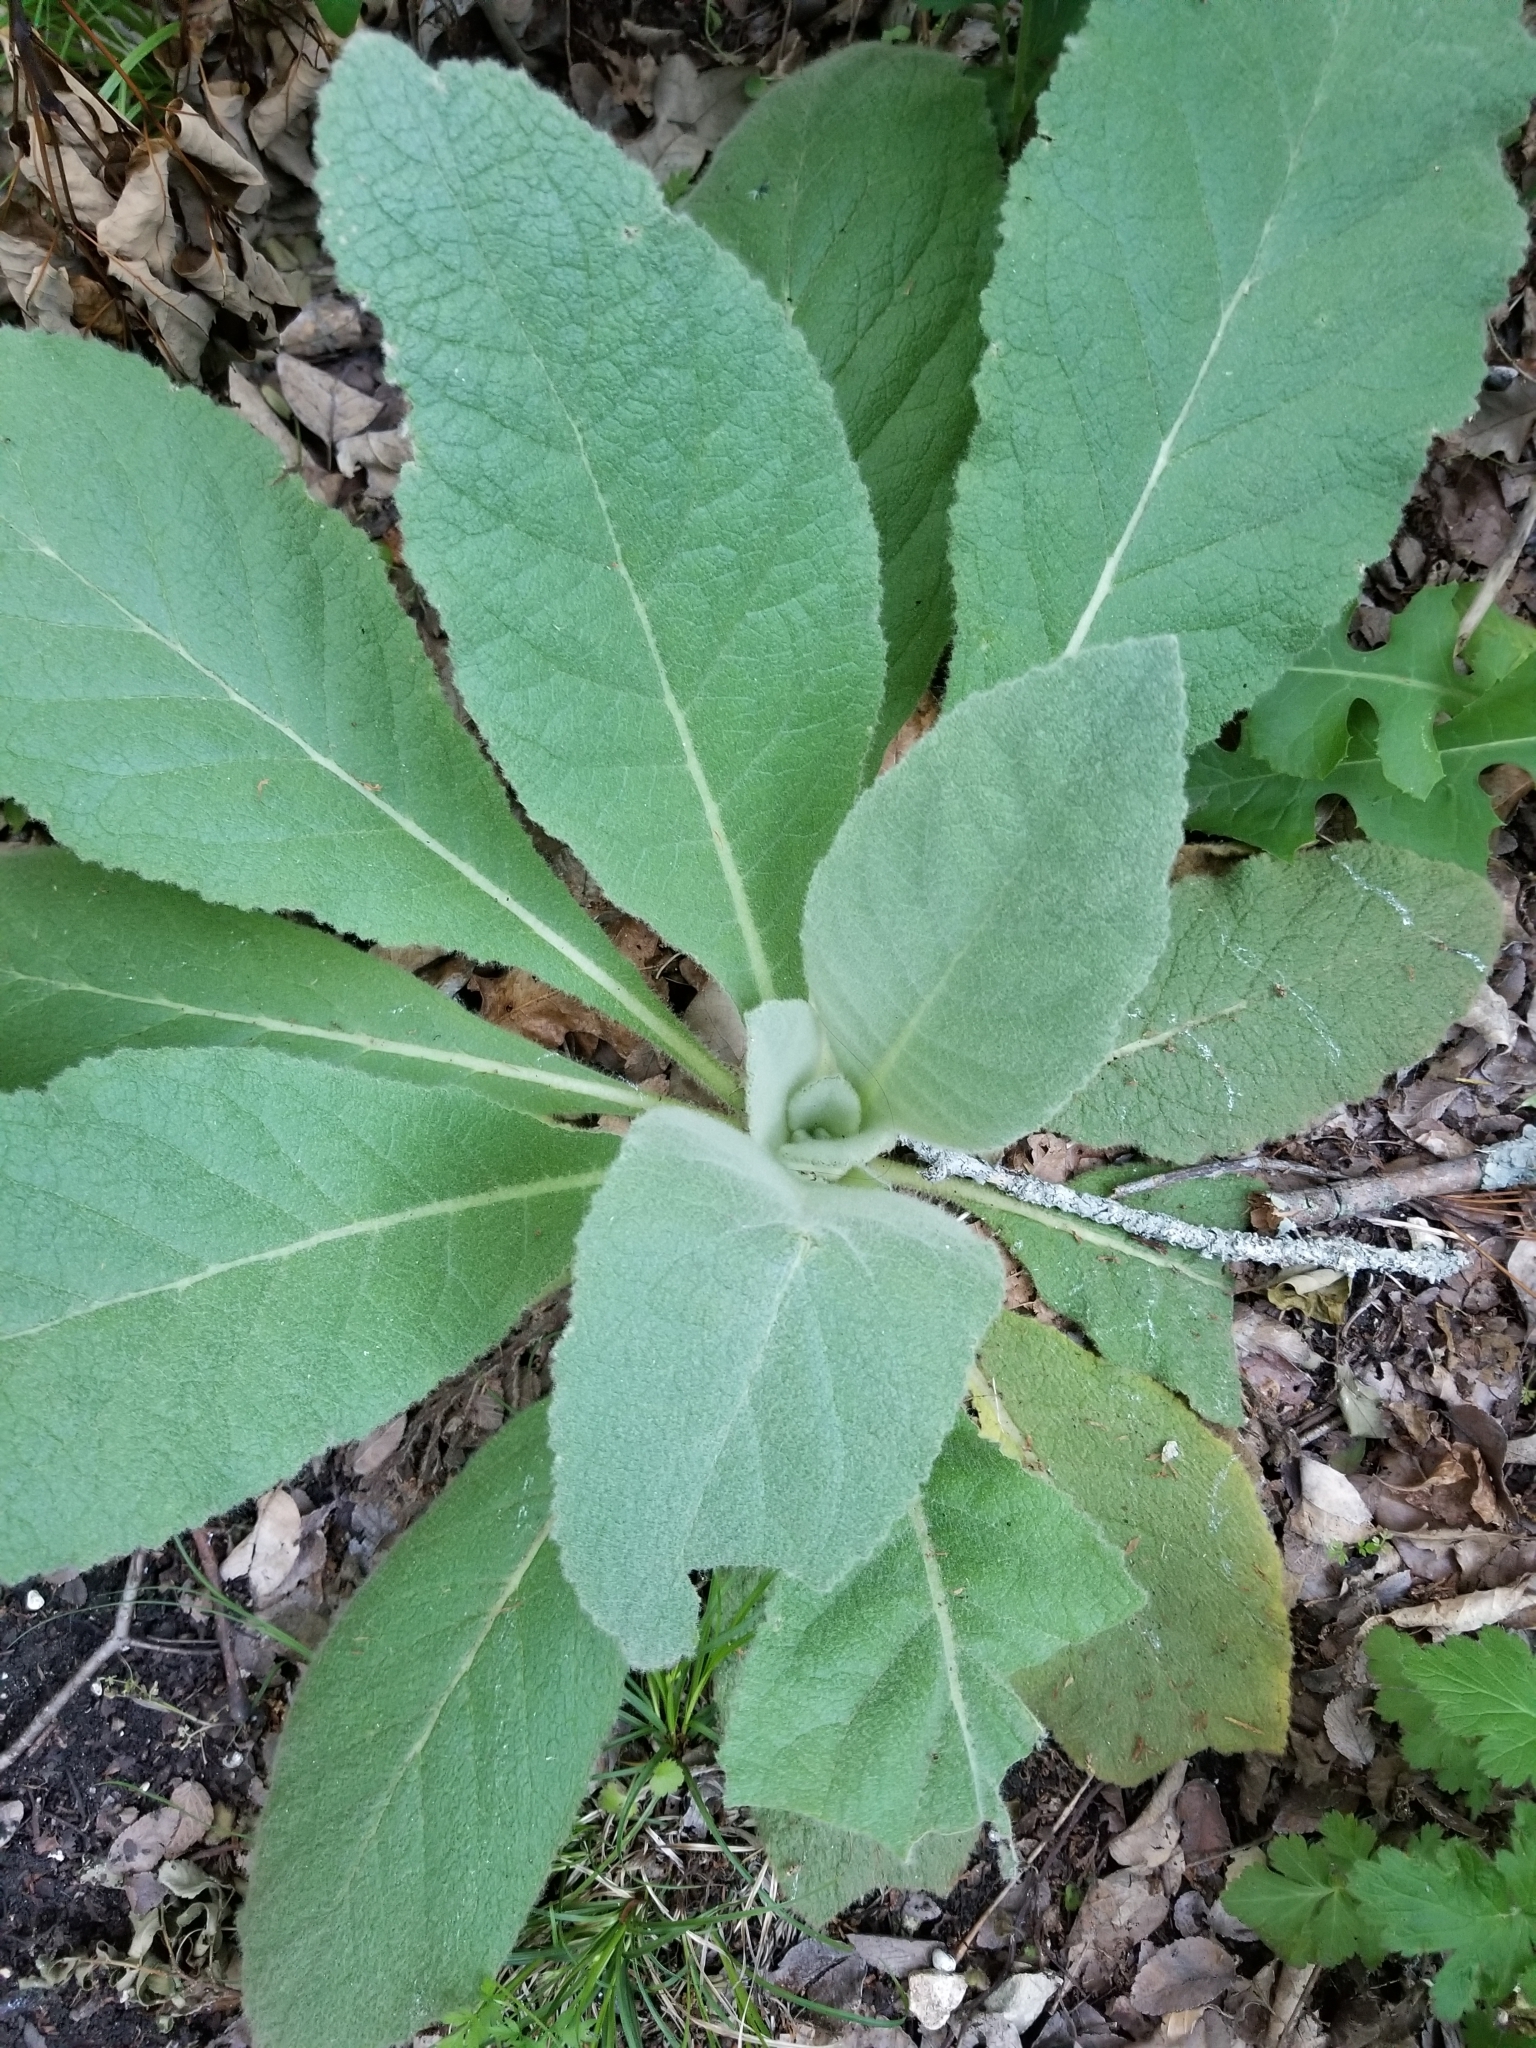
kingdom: Plantae
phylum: Tracheophyta
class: Magnoliopsida
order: Lamiales
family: Scrophulariaceae
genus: Verbascum
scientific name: Verbascum thapsus
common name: Common mullein
